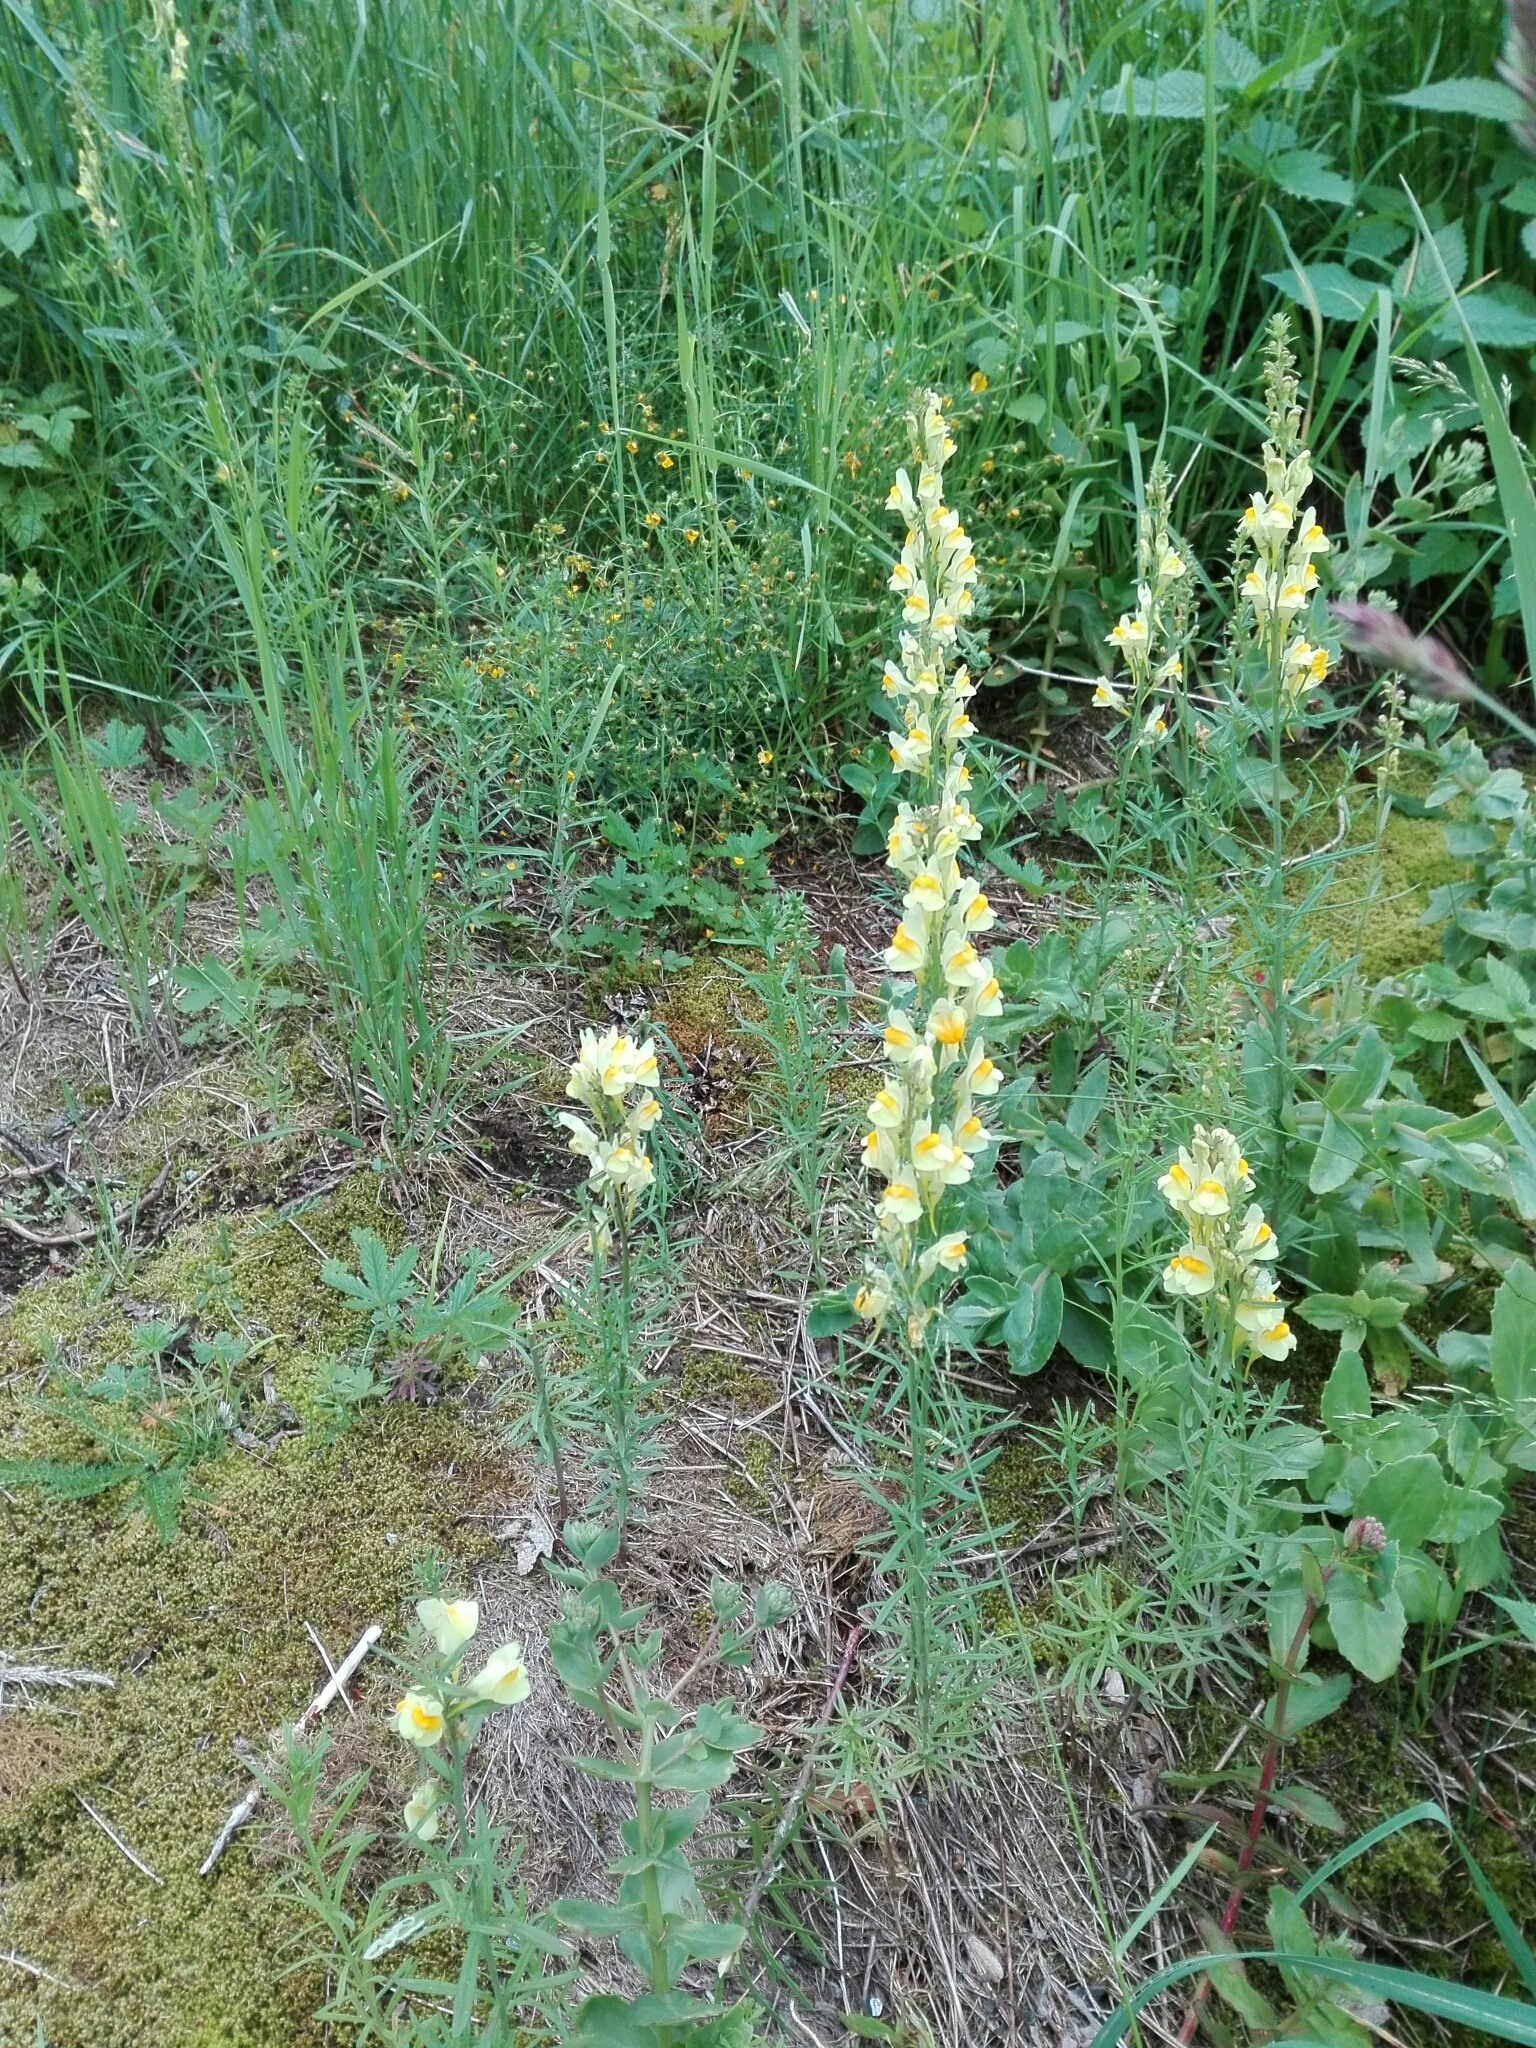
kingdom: Plantae
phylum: Tracheophyta
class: Magnoliopsida
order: Lamiales
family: Plantaginaceae
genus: Linaria
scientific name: Linaria vulgaris
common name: Butter and eggs
